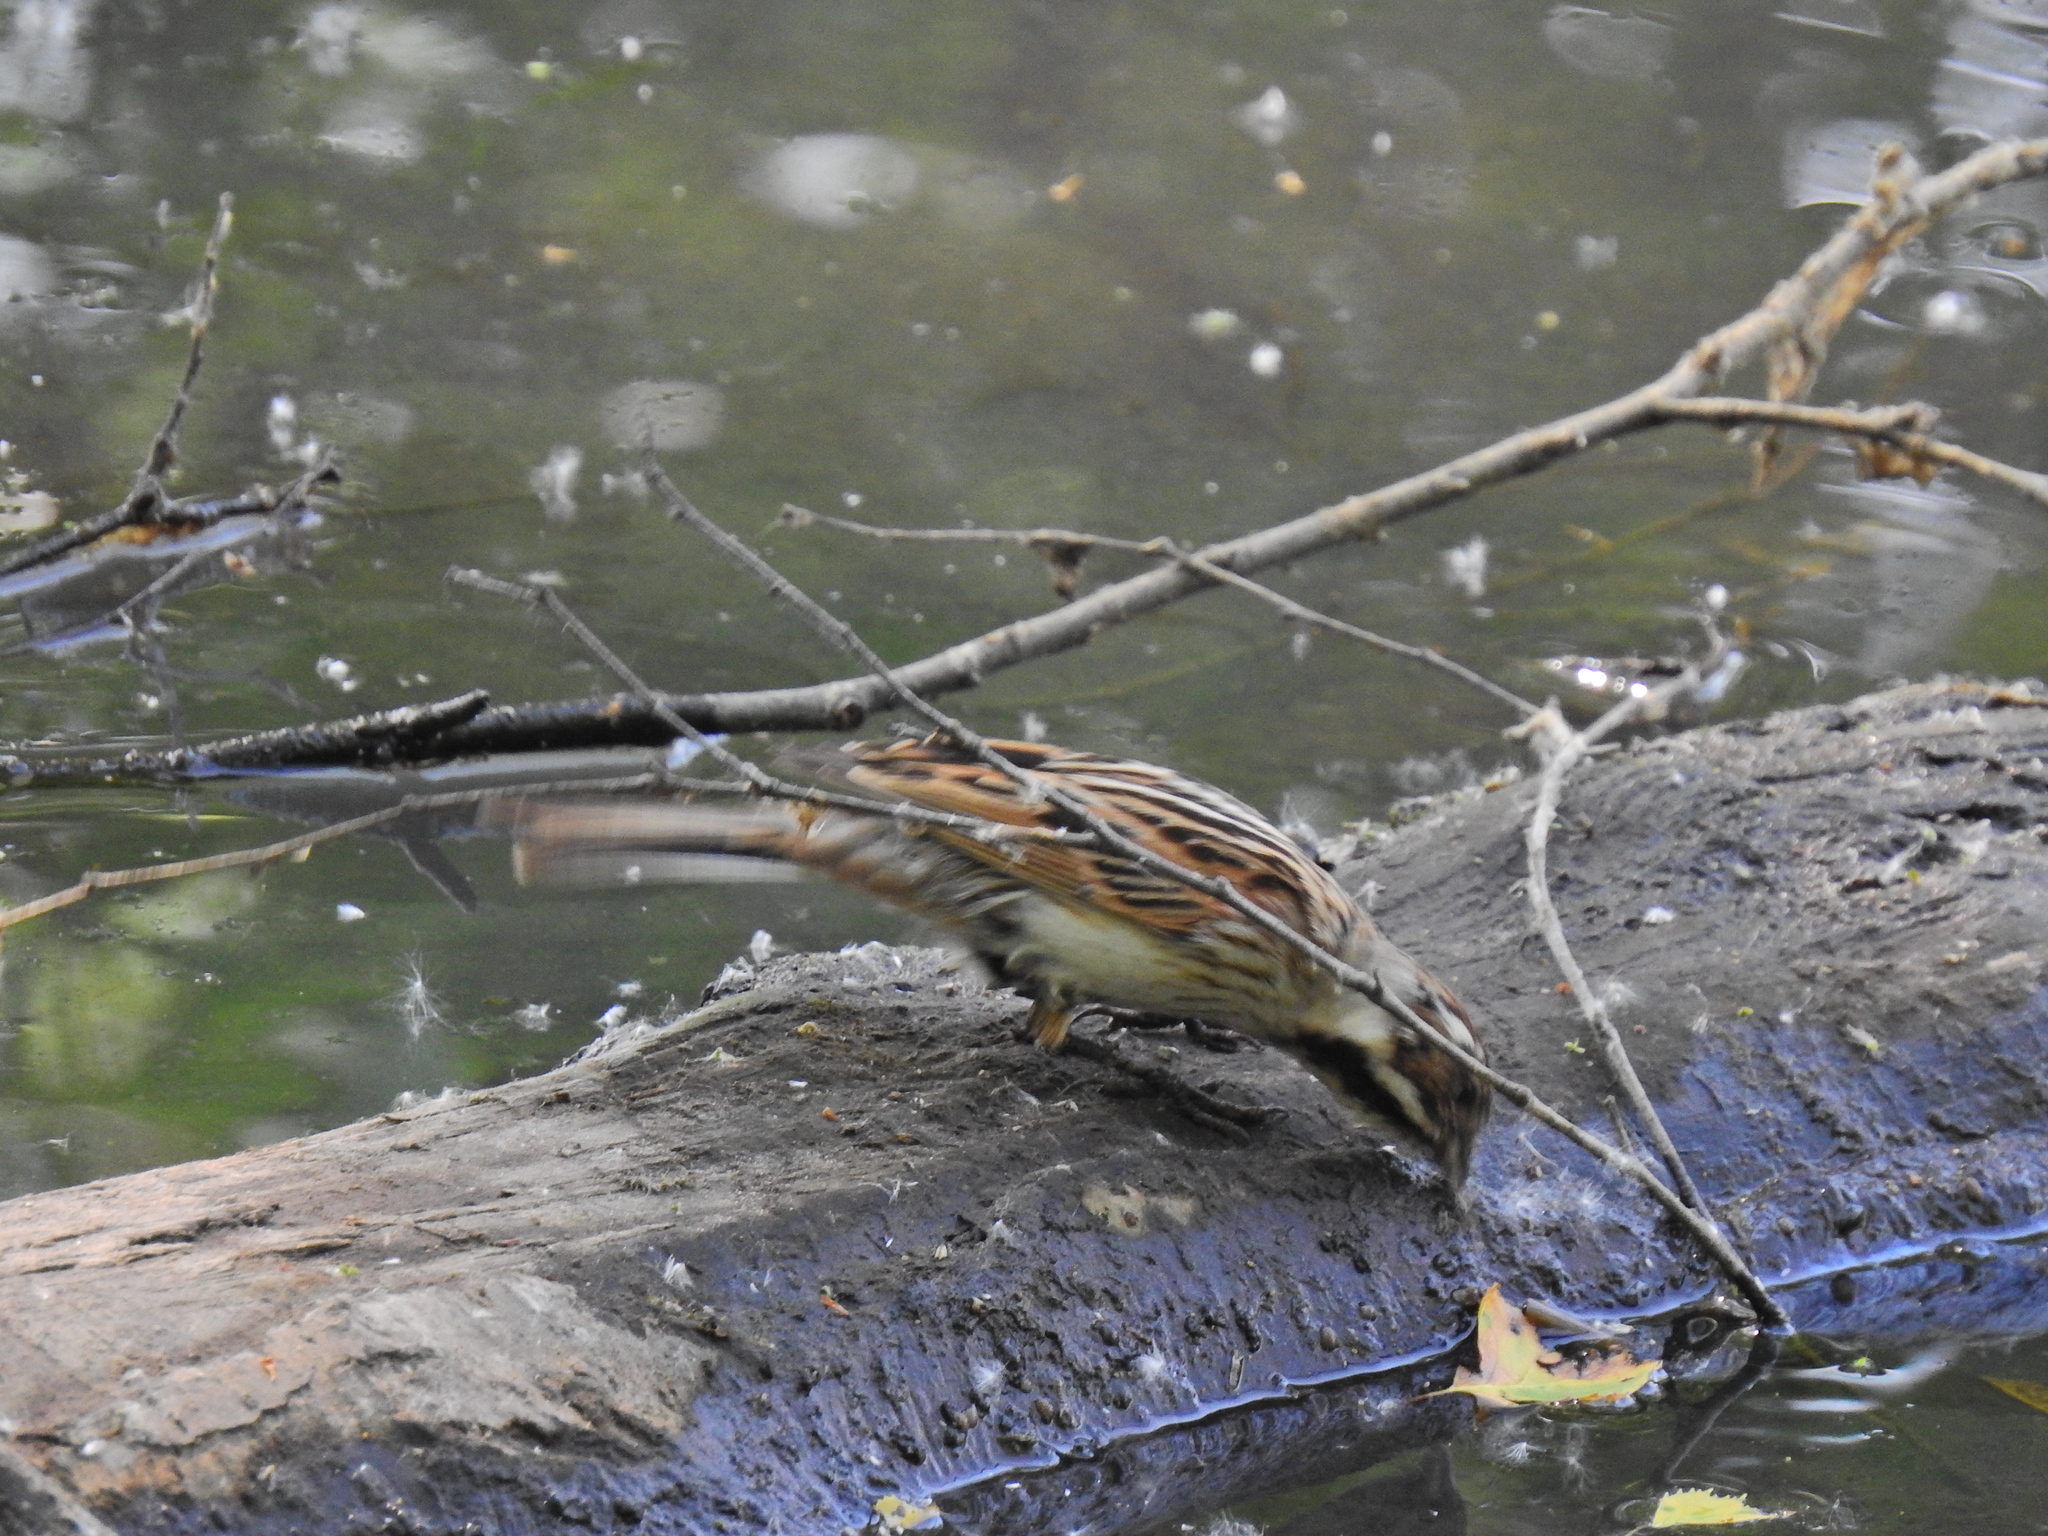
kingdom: Animalia
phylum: Chordata
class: Aves
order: Passeriformes
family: Emberizidae
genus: Emberiza
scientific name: Emberiza schoeniclus
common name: Reed bunting
